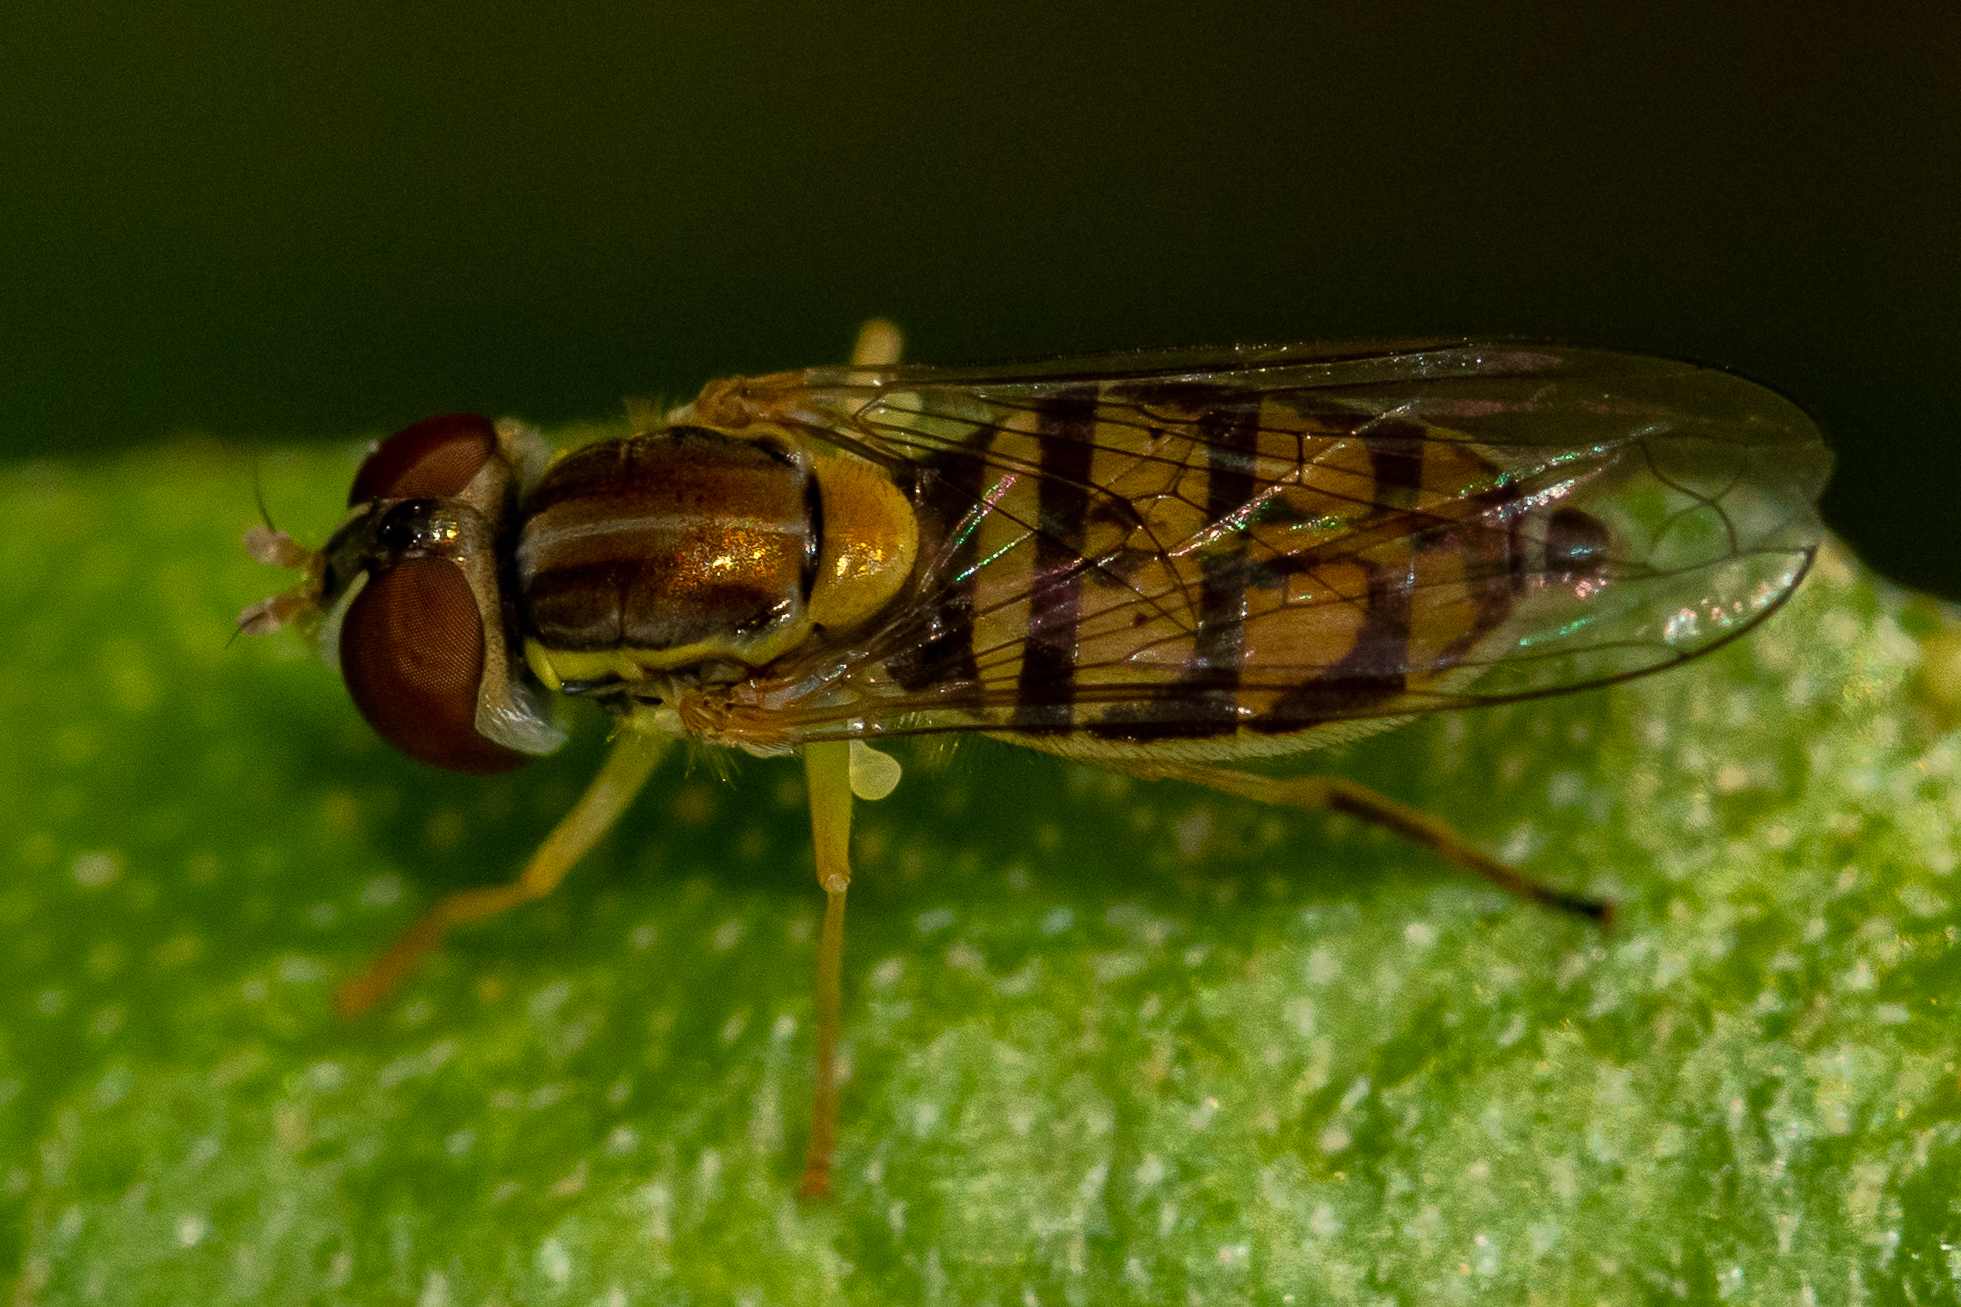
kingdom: Animalia
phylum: Arthropoda
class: Insecta
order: Diptera
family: Syrphidae
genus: Toxomerus
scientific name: Toxomerus marginatus
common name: Syrphid fly
